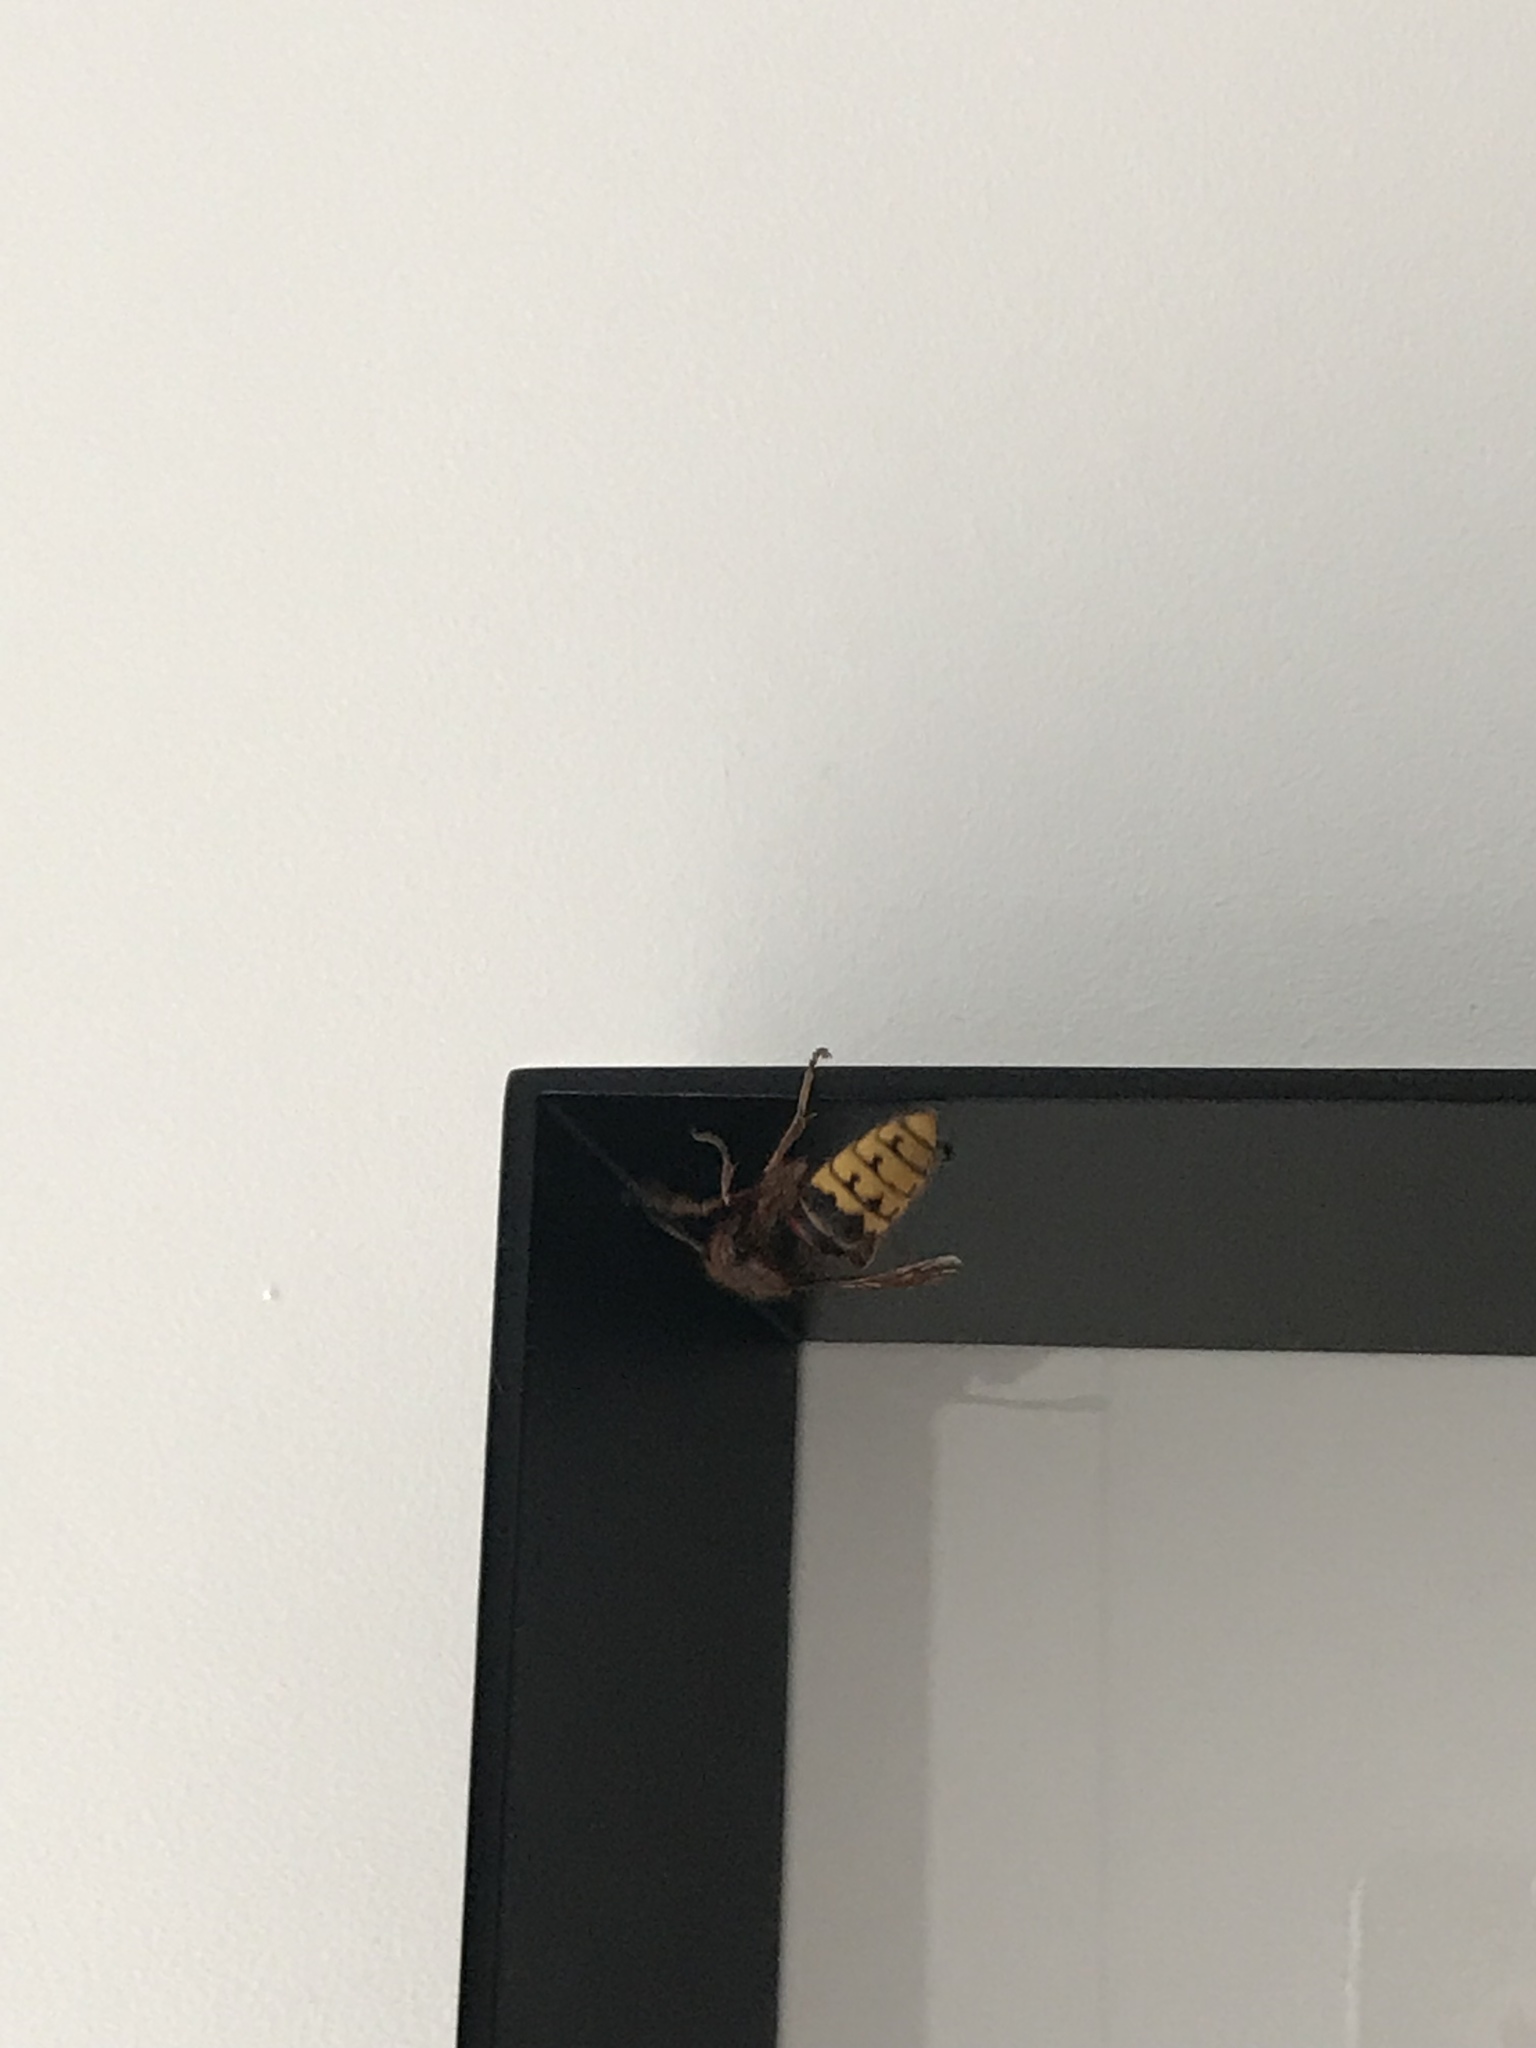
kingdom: Animalia
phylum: Arthropoda
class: Insecta
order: Hymenoptera
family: Vespidae
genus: Vespa
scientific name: Vespa crabro
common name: Hornet
